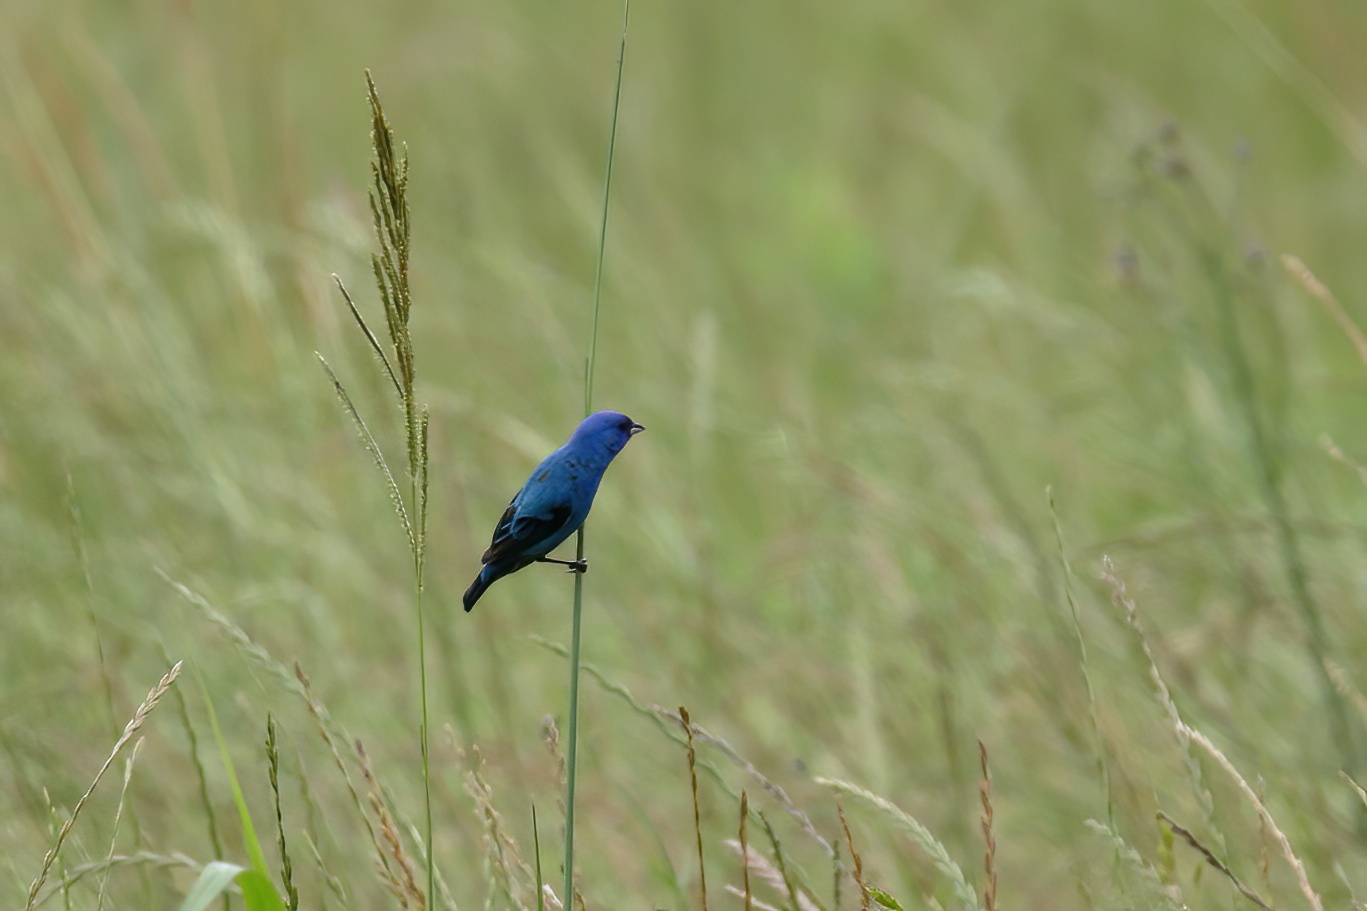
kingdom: Animalia
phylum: Chordata
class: Aves
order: Passeriformes
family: Cardinalidae
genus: Passerina
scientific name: Passerina cyanea
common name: Indigo bunting
